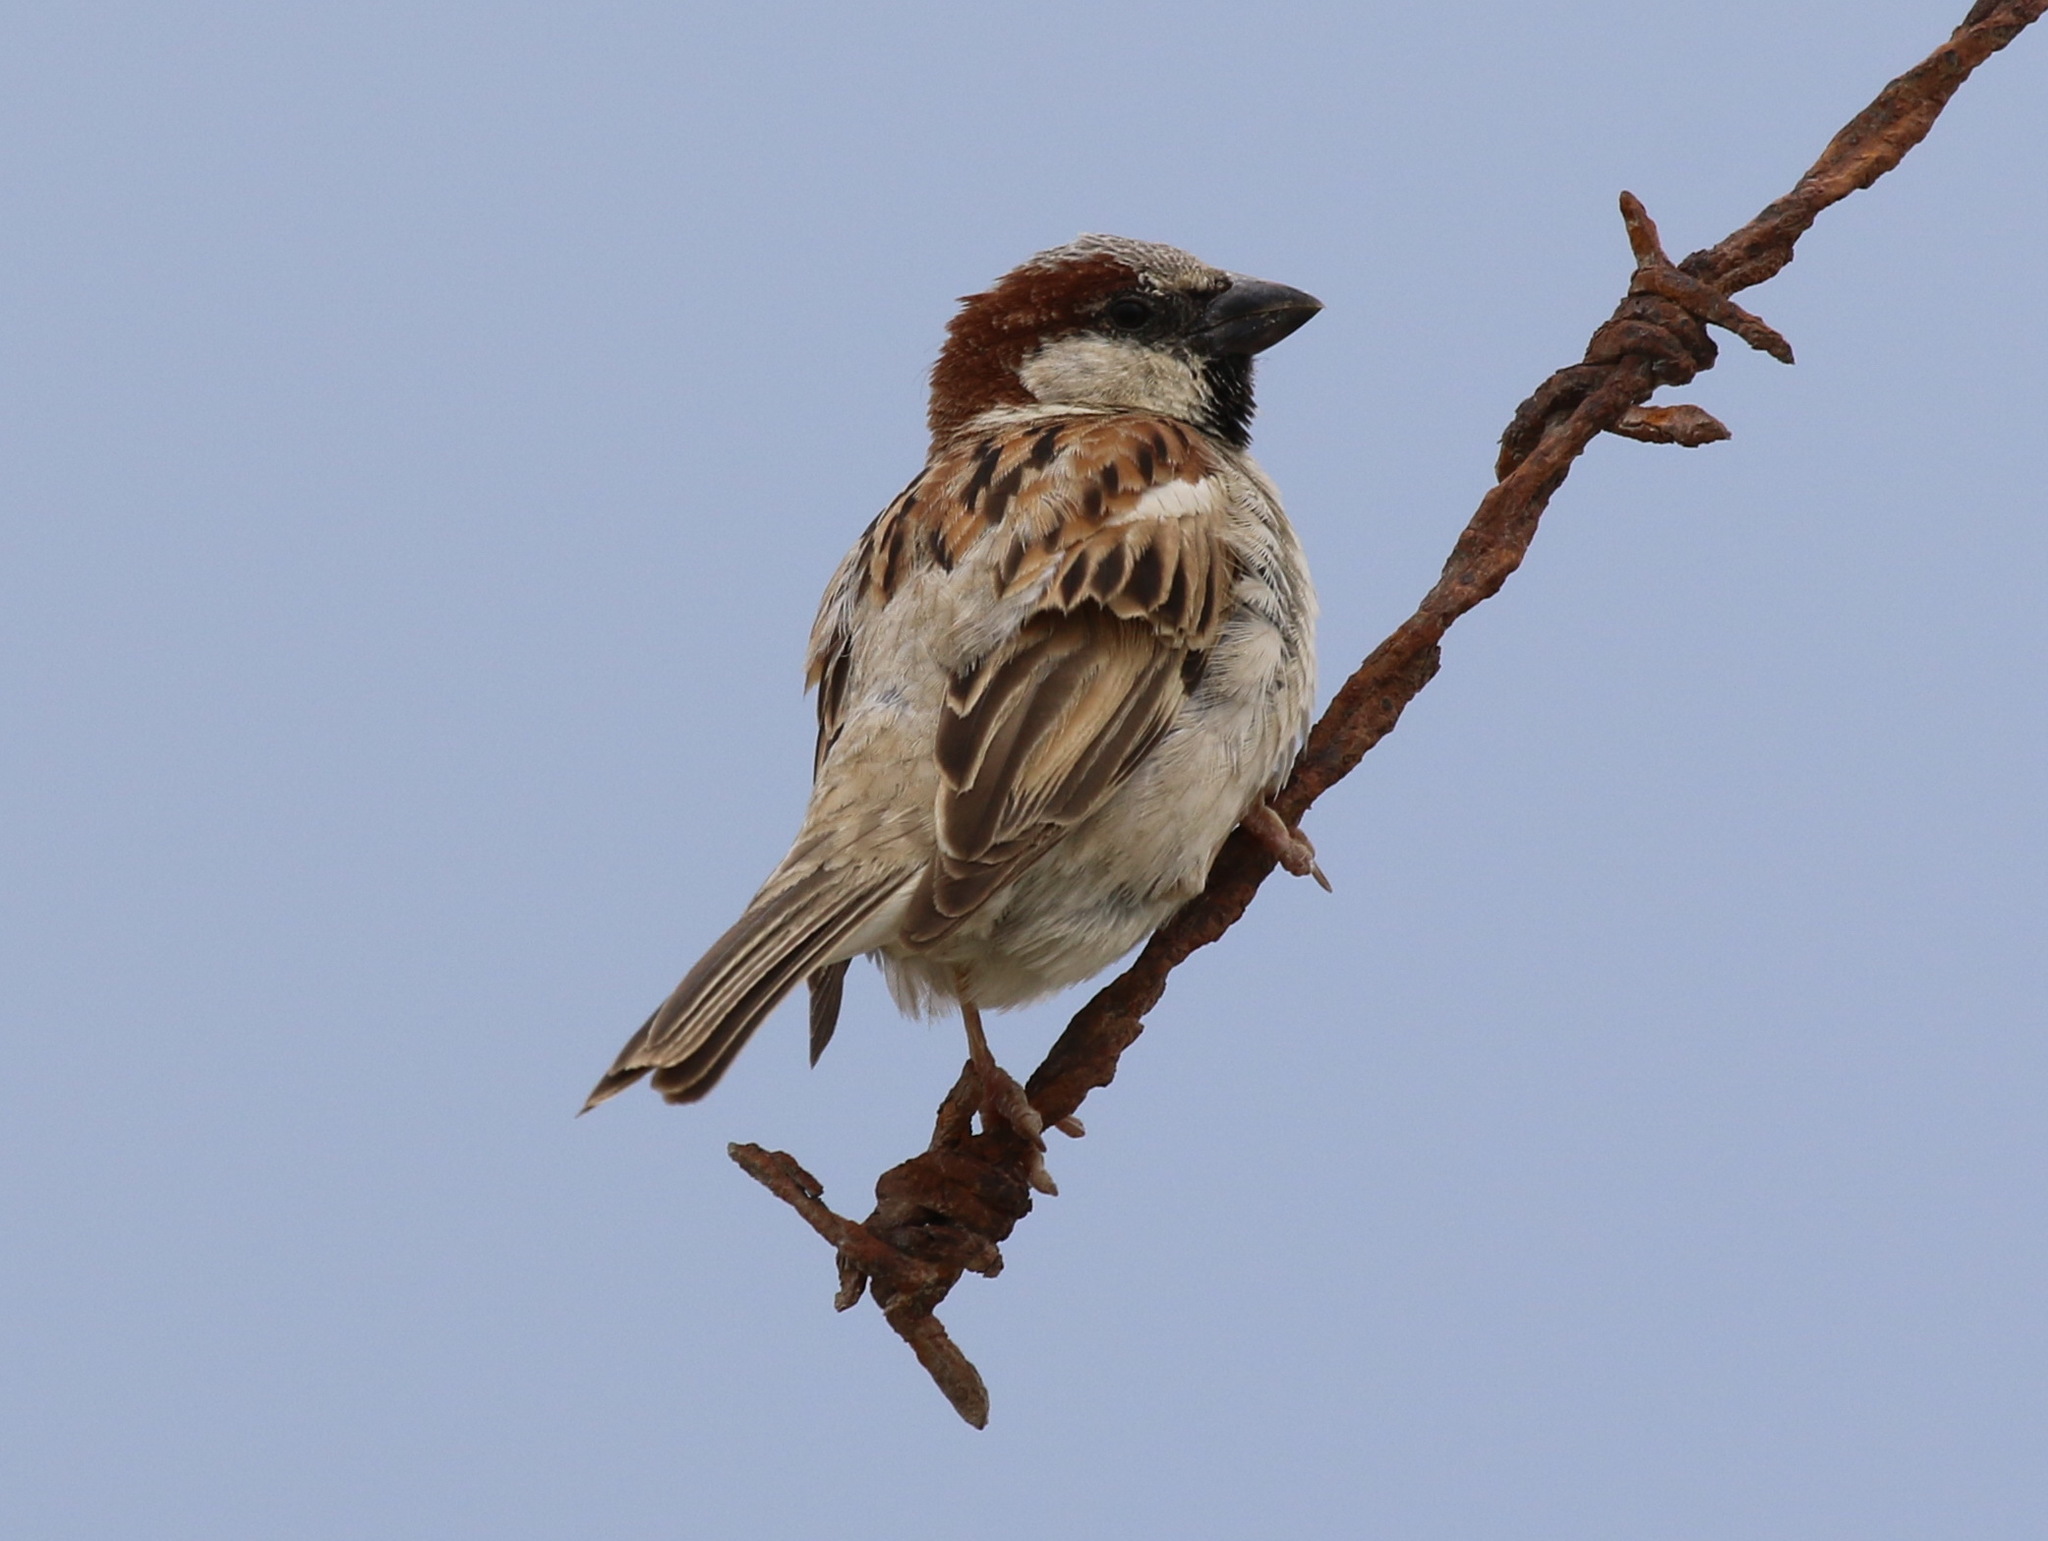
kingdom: Animalia
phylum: Chordata
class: Aves
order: Passeriformes
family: Passeridae
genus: Passer
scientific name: Passer domesticus
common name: House sparrow
